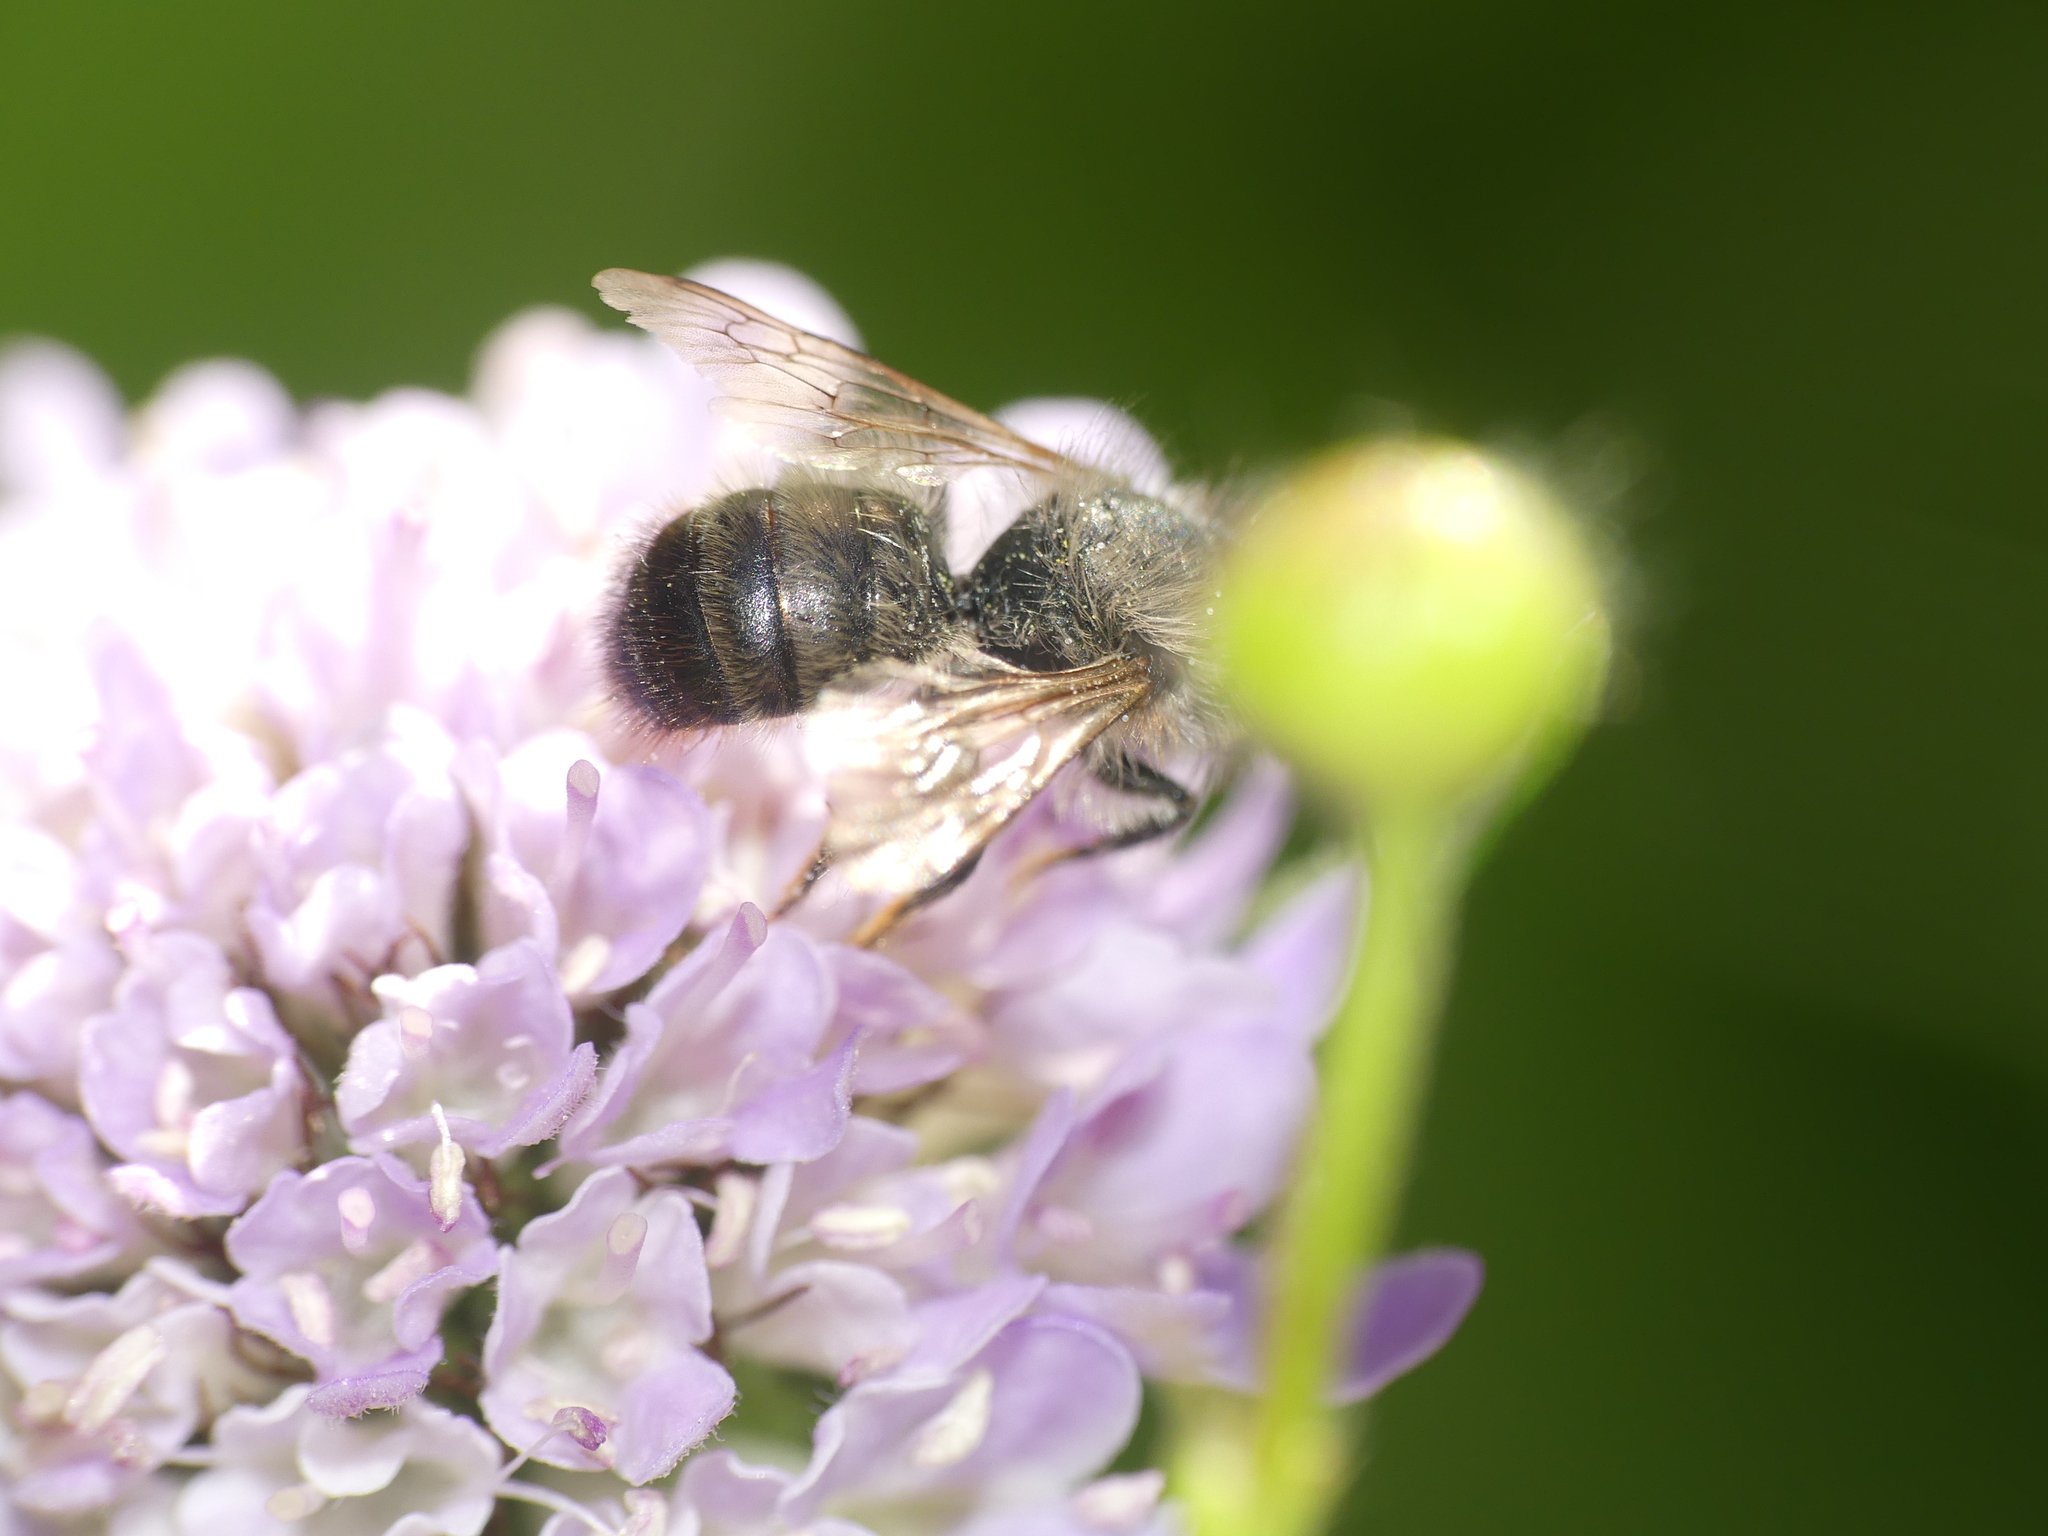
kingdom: Animalia
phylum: Arthropoda
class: Insecta
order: Hymenoptera
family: Megachilidae
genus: Osmia
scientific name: Osmia bicornis
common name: Red mason bee
